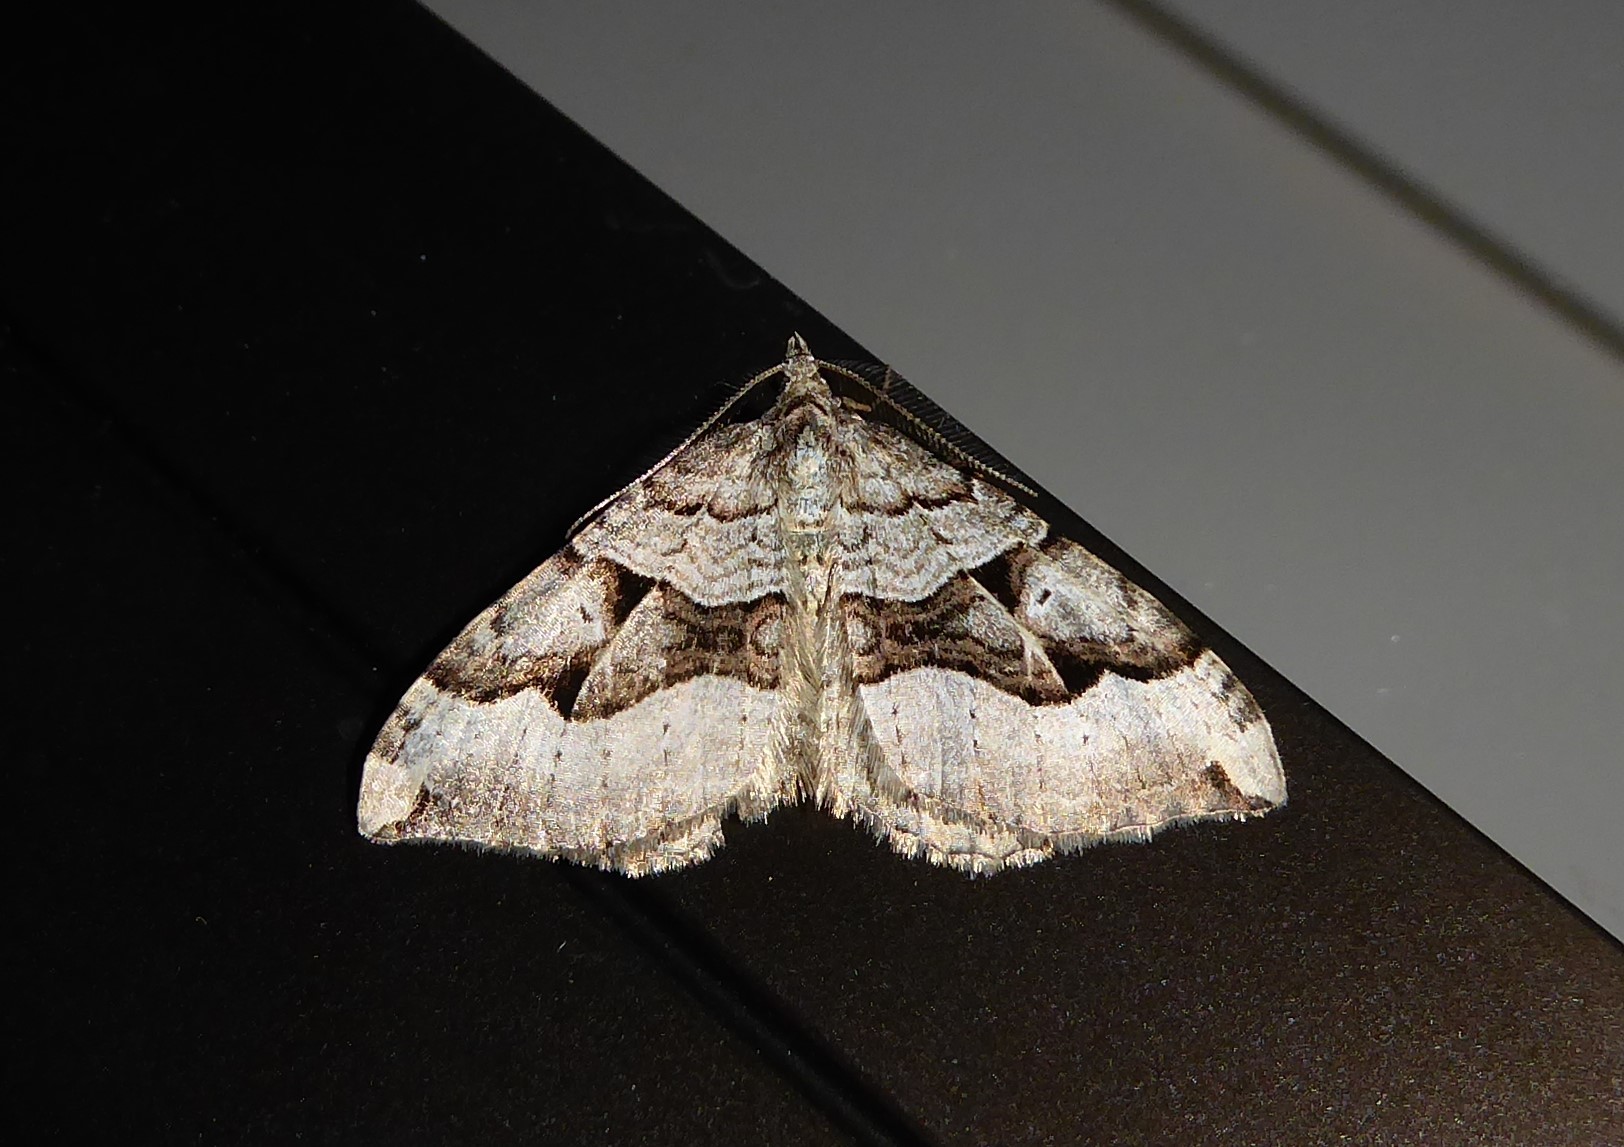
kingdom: Animalia
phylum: Arthropoda
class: Insecta
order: Lepidoptera
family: Geometridae
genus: Xanthorhoe
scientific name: Xanthorhoe semifissata
